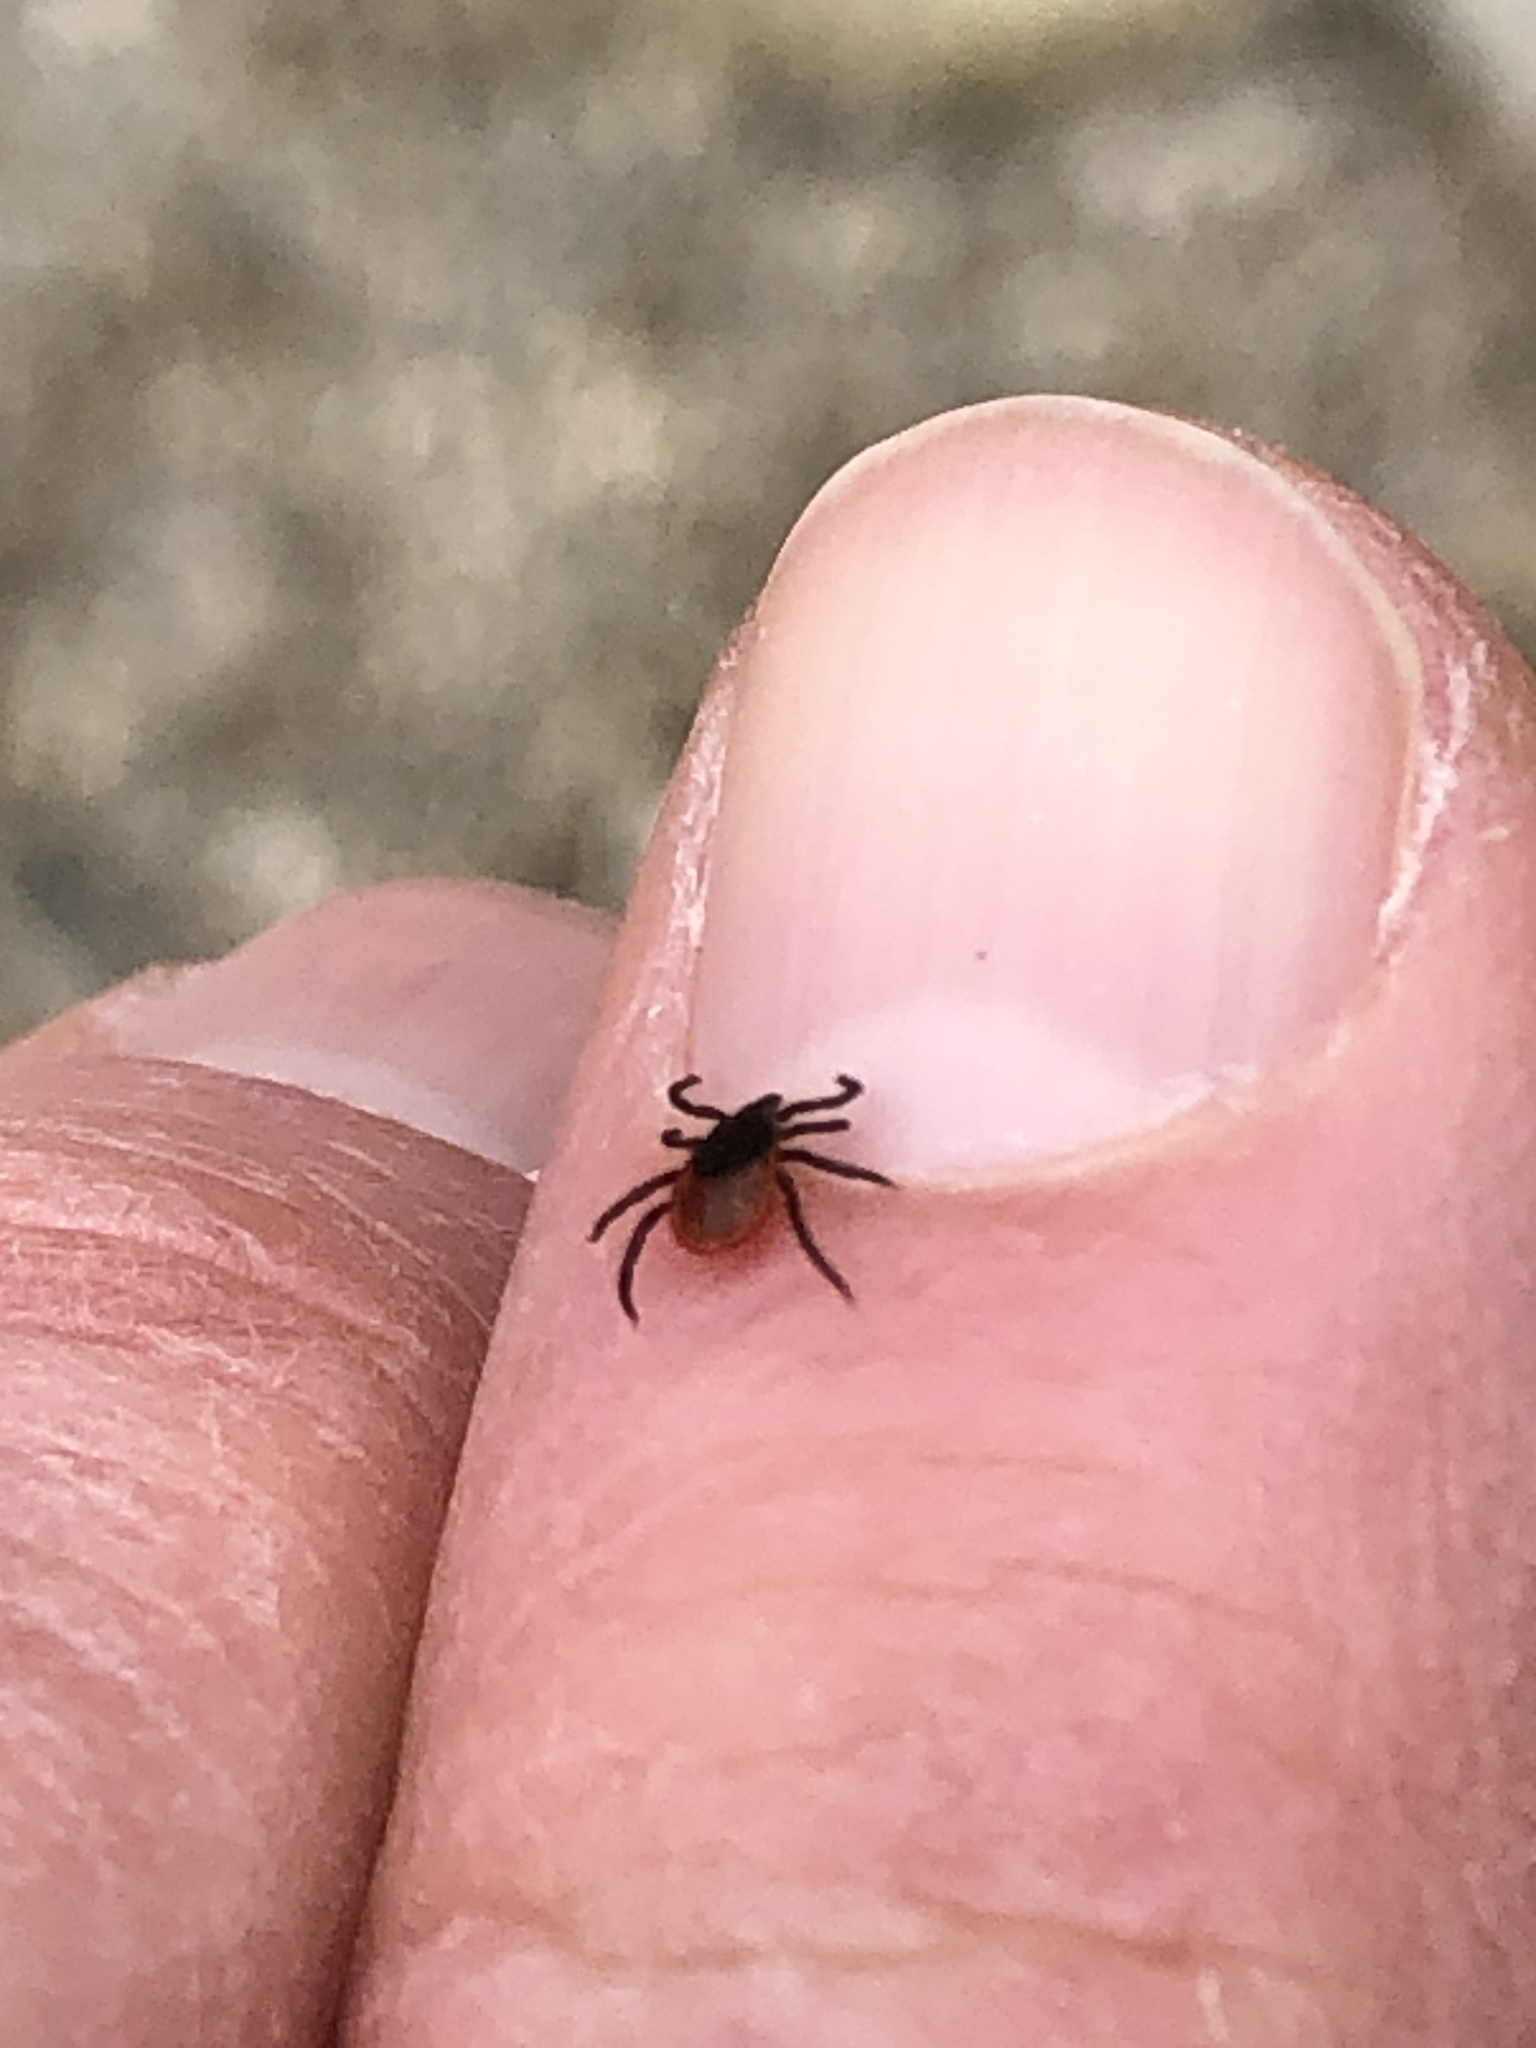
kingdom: Animalia
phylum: Arthropoda
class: Arachnida
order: Ixodida
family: Ixodidae
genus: Ixodes
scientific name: Ixodes scapularis
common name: Black legged tick
